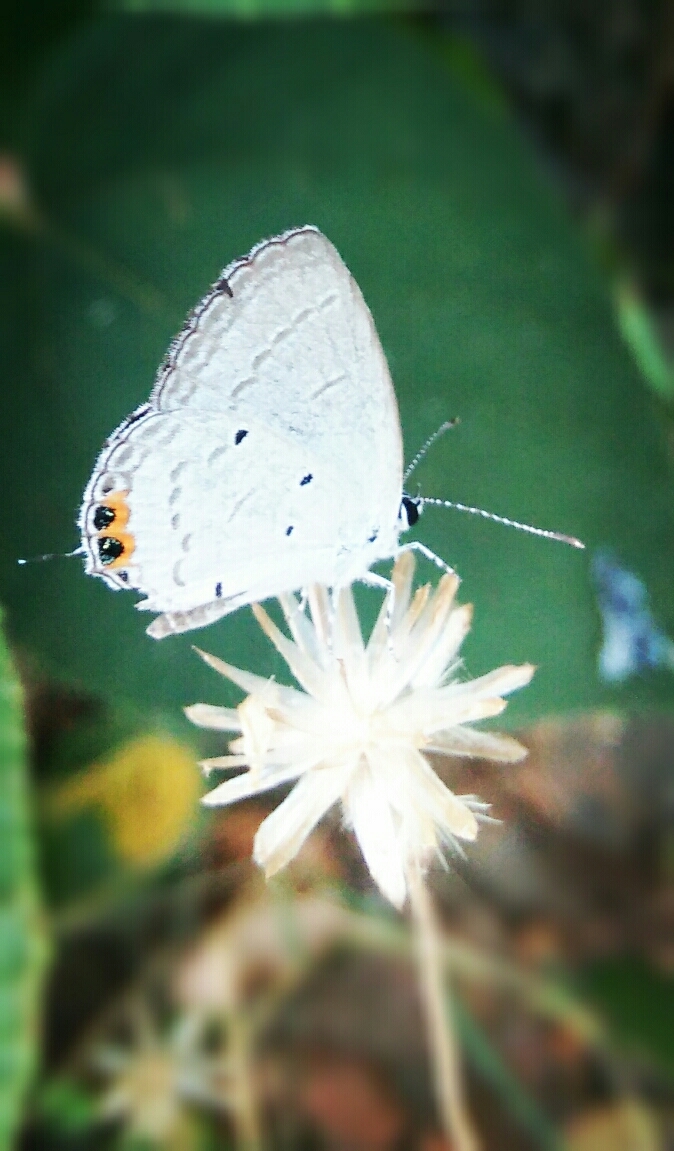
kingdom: Animalia
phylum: Arthropoda
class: Insecta
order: Lepidoptera
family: Lycaenidae
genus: Everes
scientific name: Everes lacturnus
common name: Orange-tipped pea-blue
